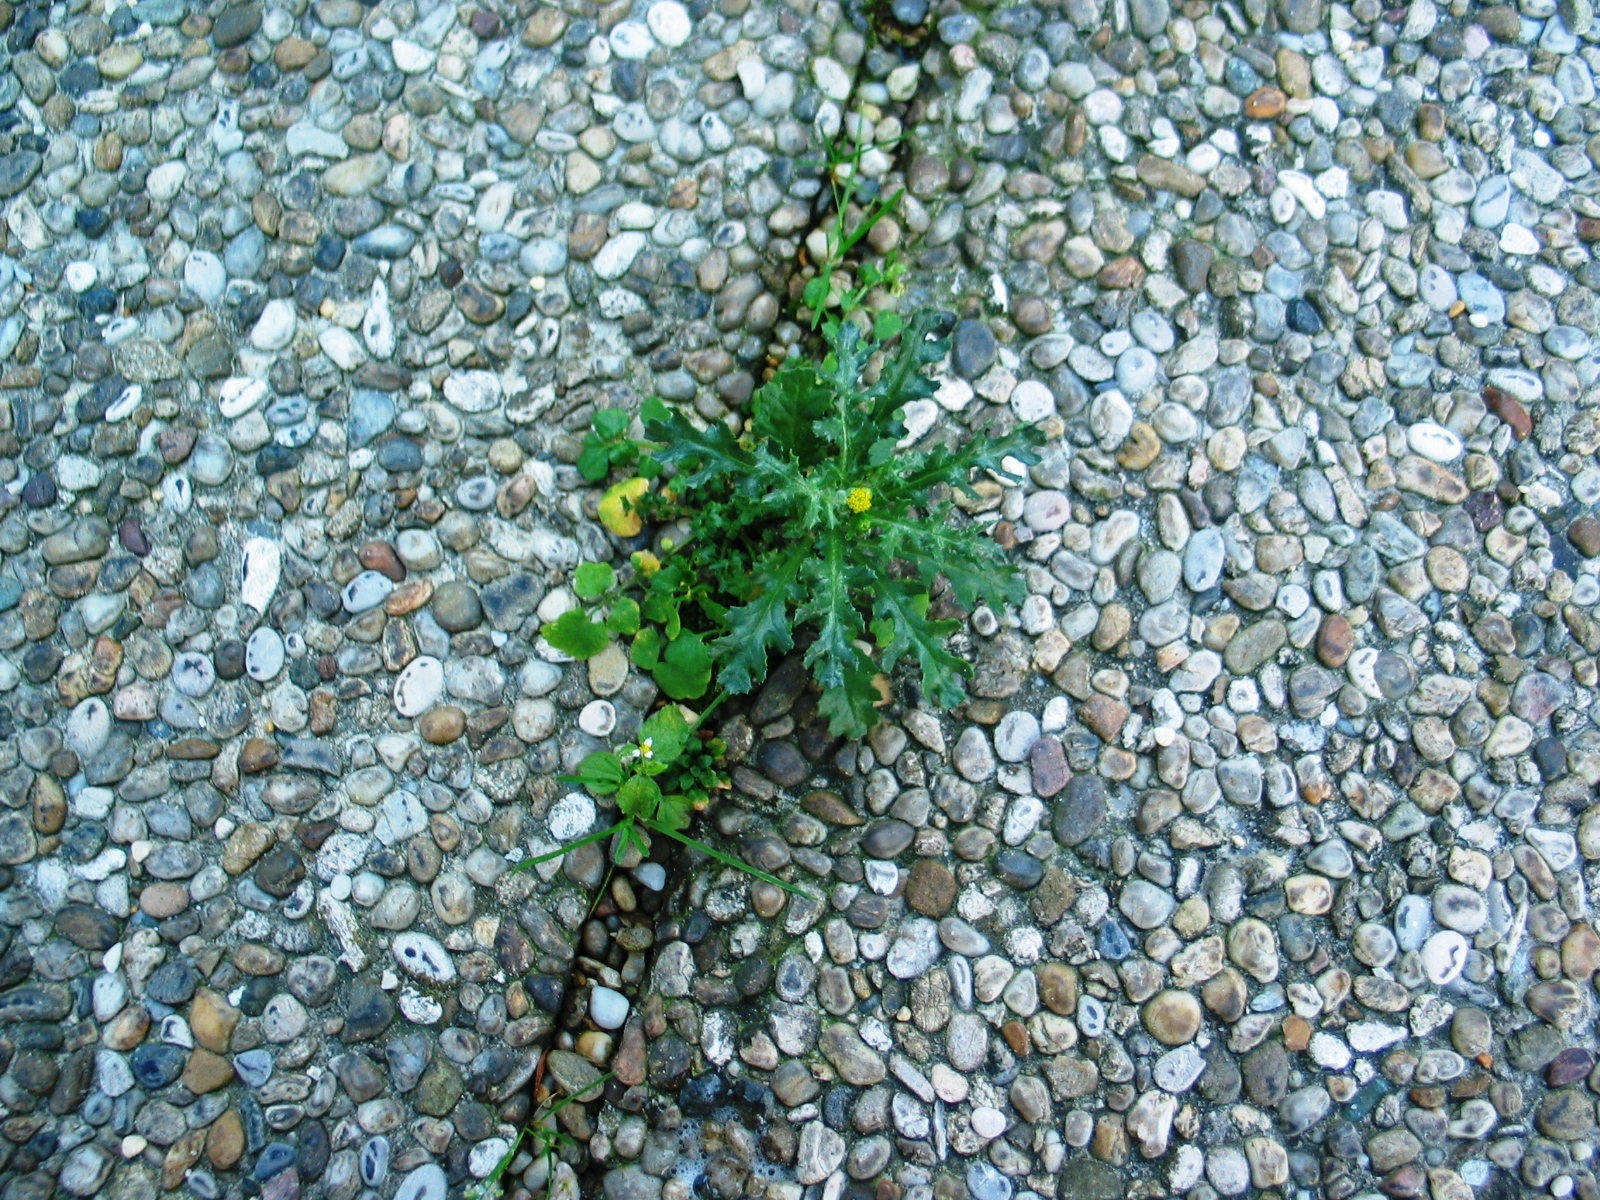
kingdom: Plantae
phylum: Tracheophyta
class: Magnoliopsida
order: Asterales
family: Asteraceae
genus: Senecio
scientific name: Senecio vulgaris
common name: Old-man-in-the-spring
